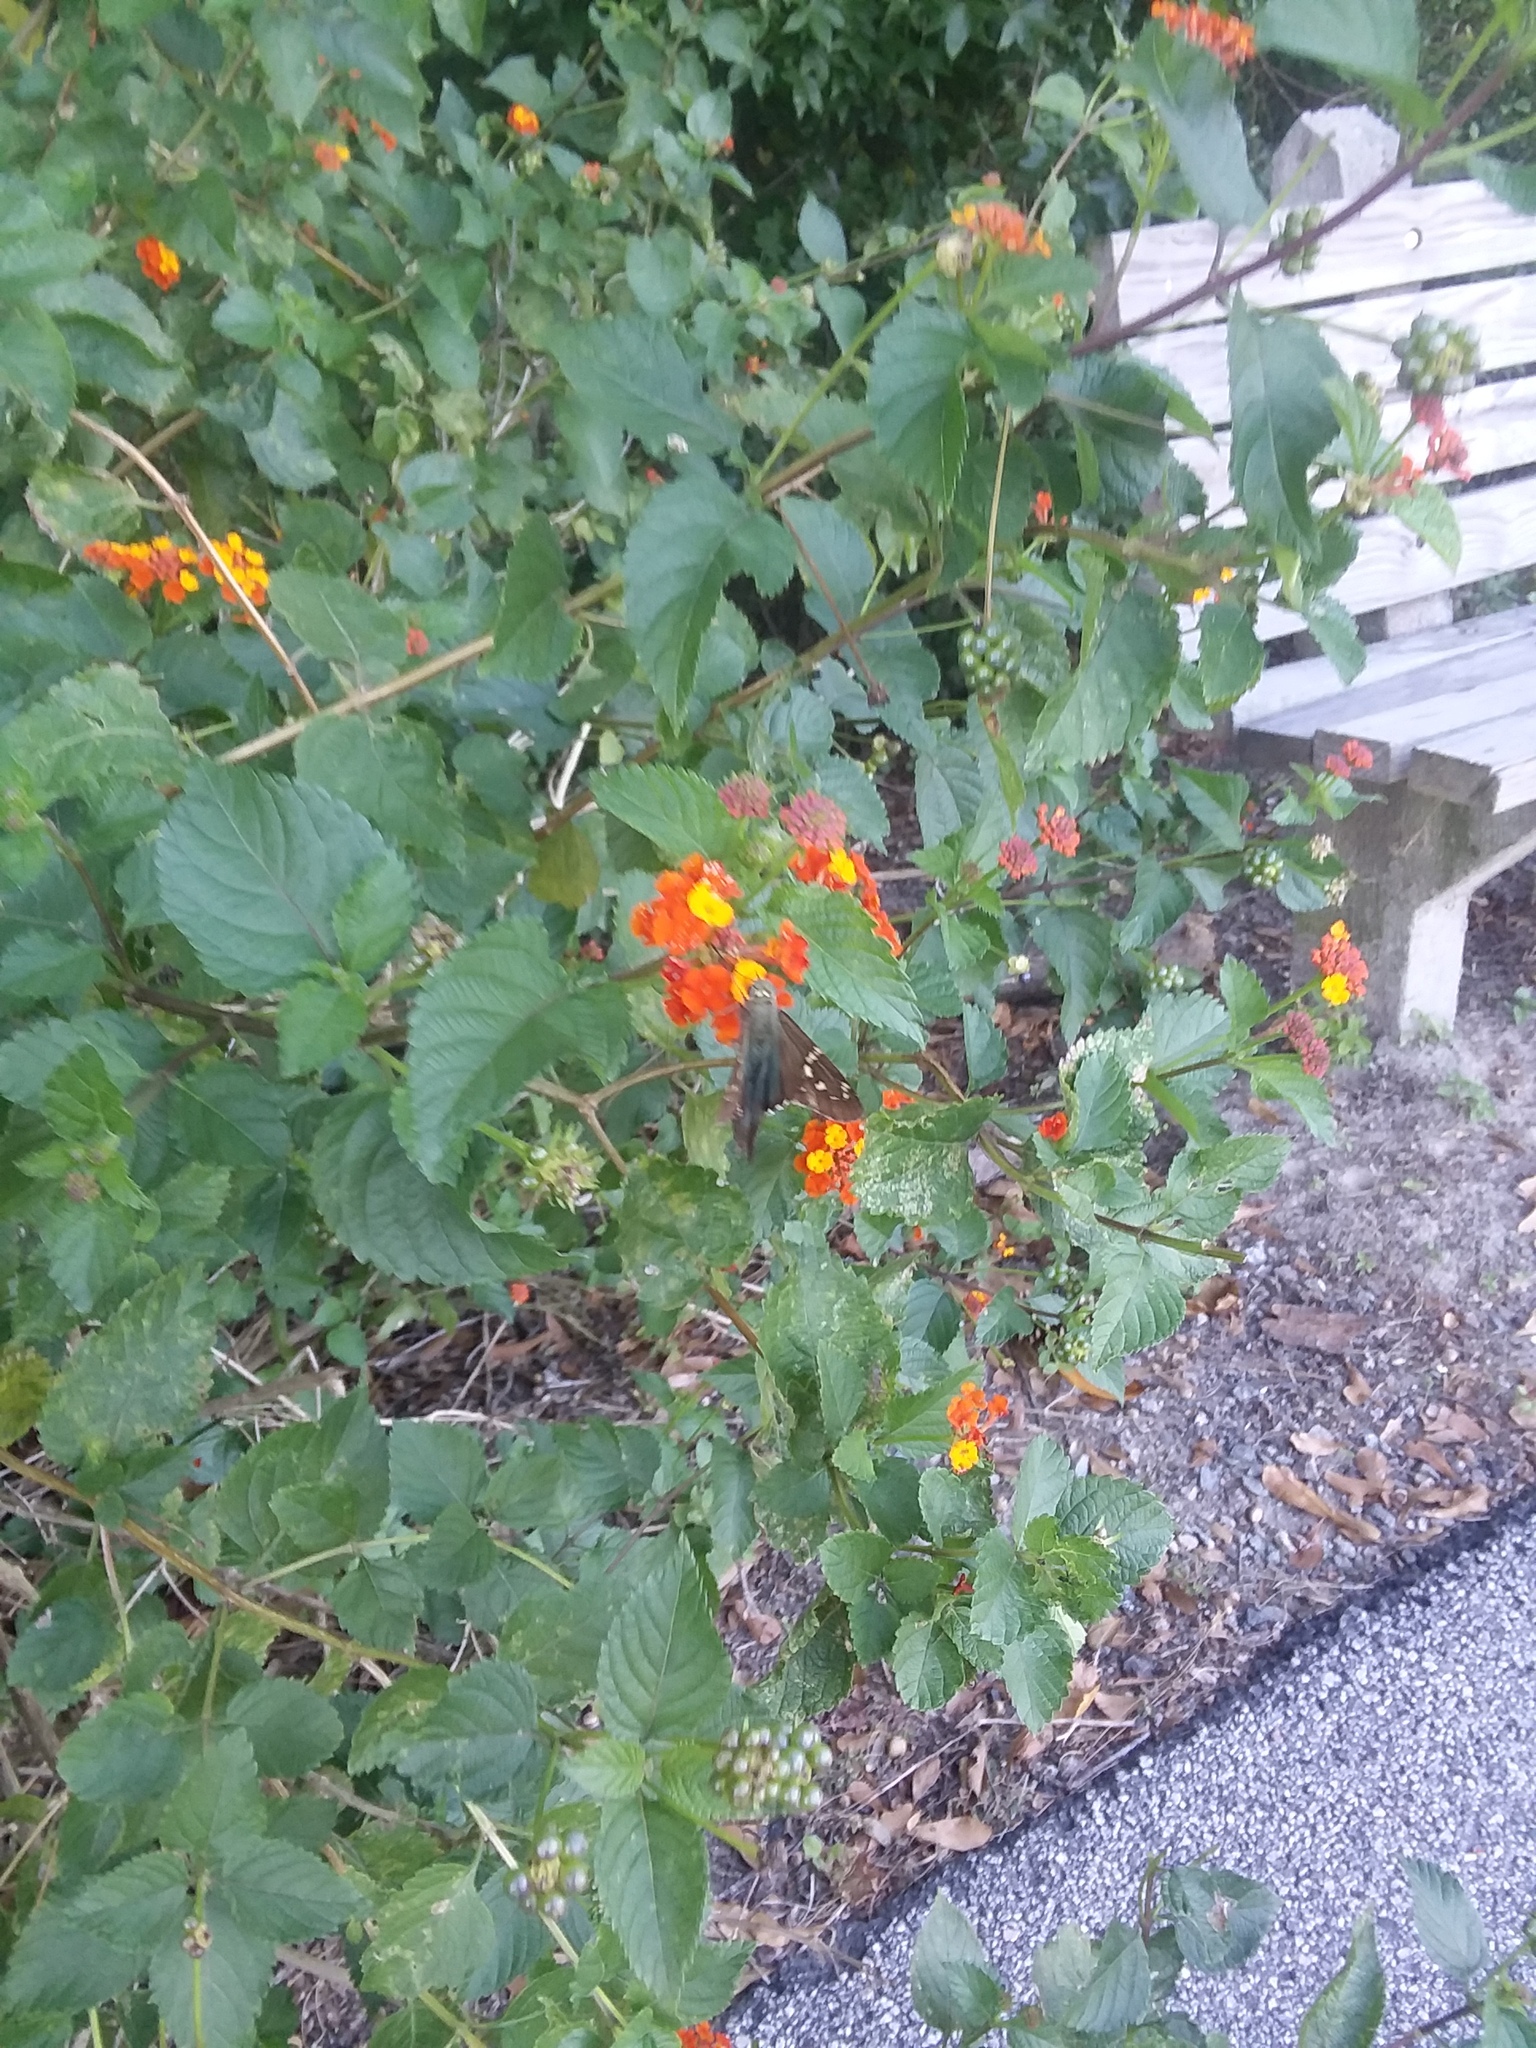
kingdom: Animalia
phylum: Arthropoda
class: Insecta
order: Lepidoptera
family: Hesperiidae
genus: Urbanus
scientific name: Urbanus proteus
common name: Long-tailed skipper
